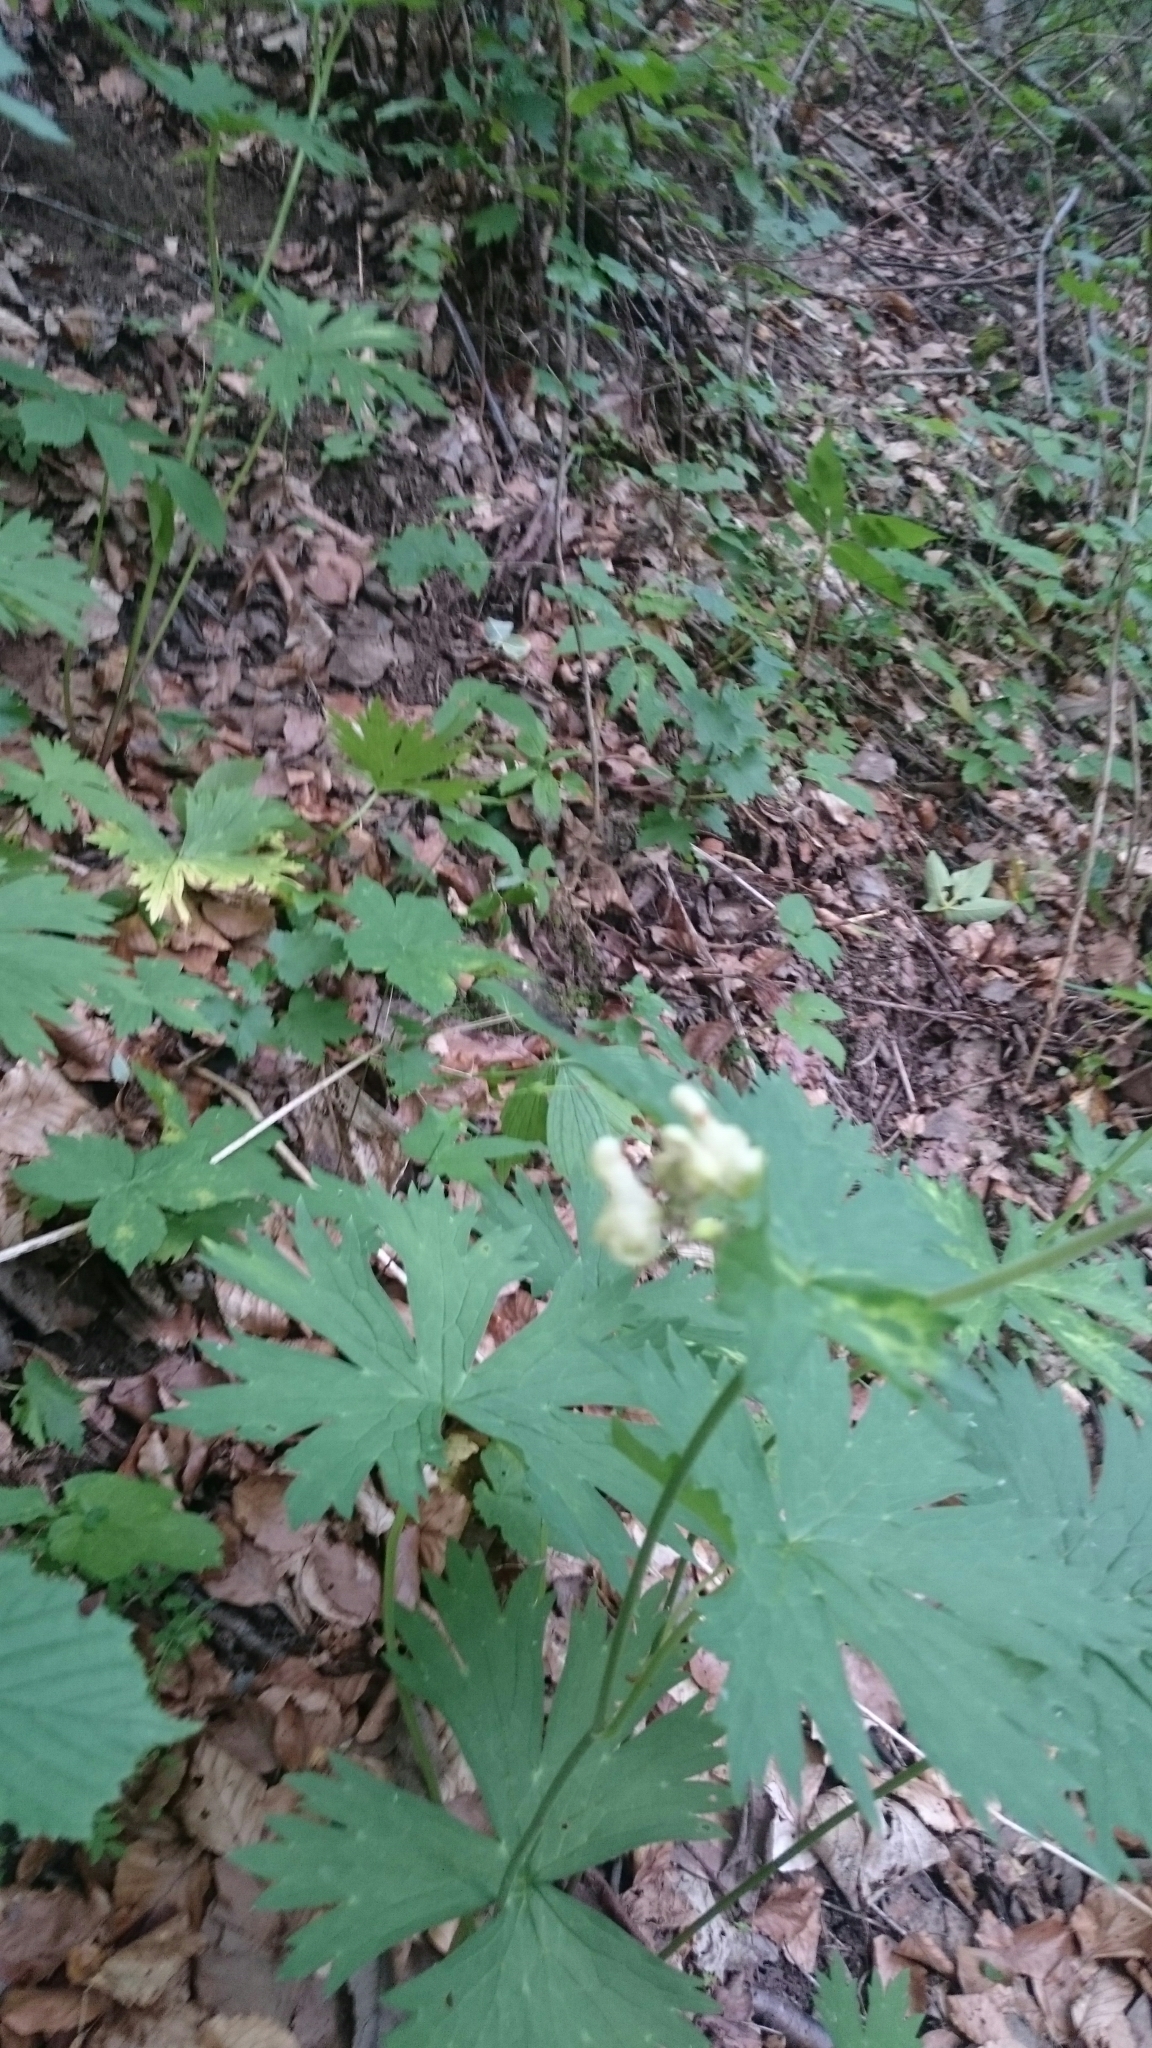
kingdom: Plantae
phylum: Tracheophyta
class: Magnoliopsida
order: Ranunculales
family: Ranunculaceae
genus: Aconitum
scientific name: Aconitum lycoctonum
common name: Wolf's-bane
